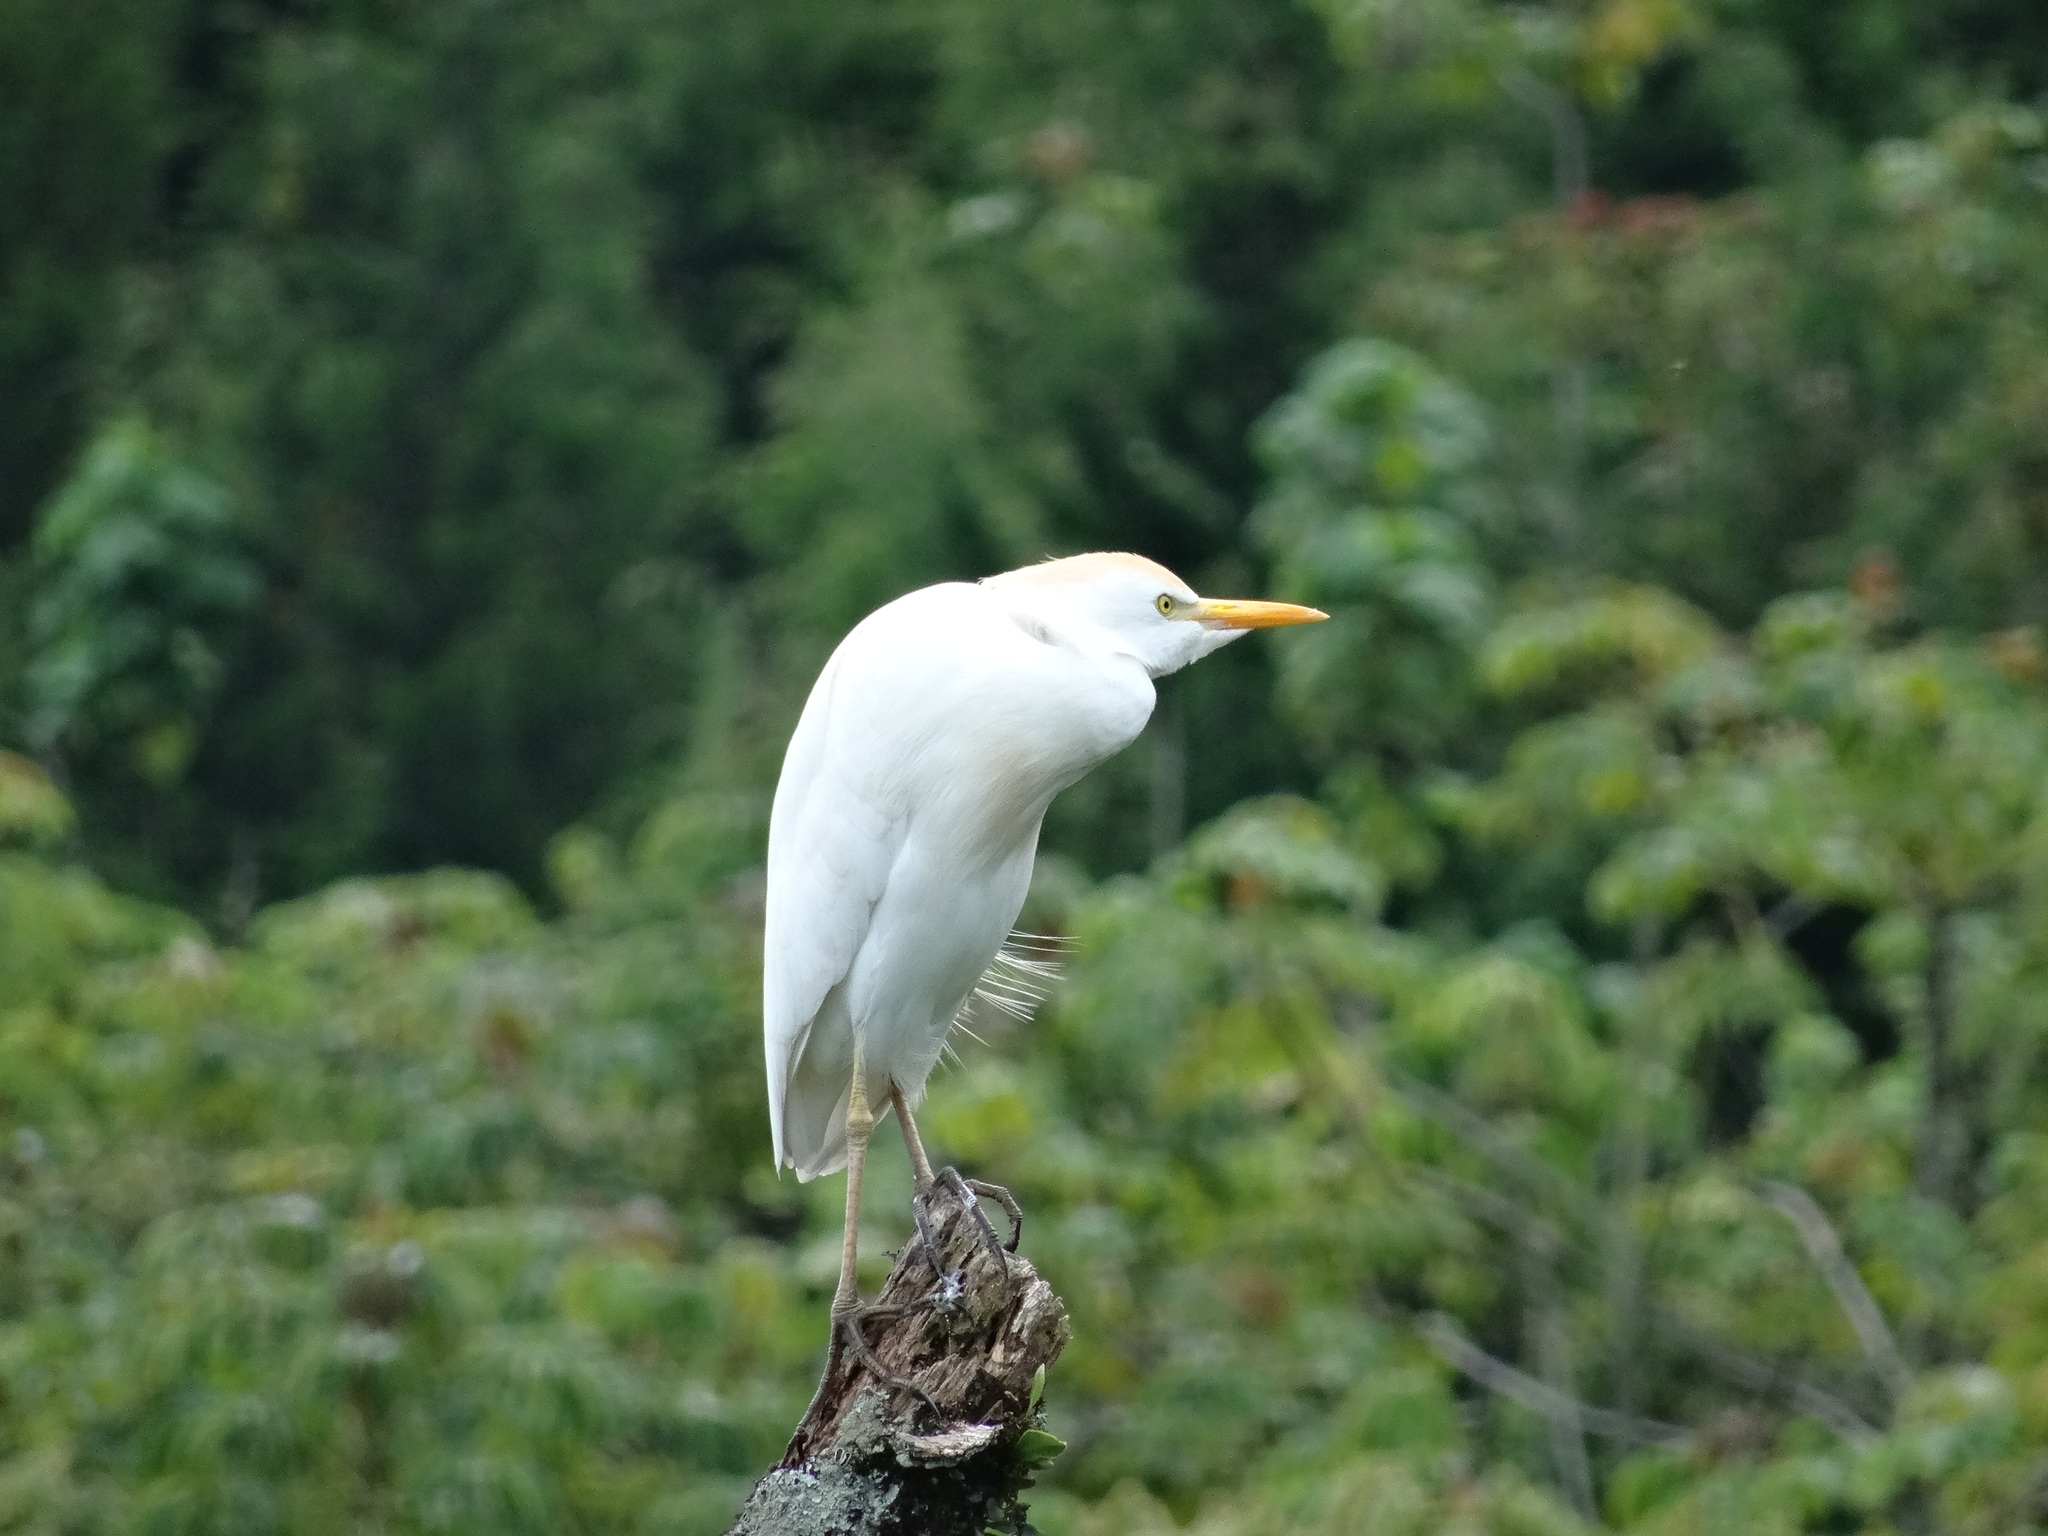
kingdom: Animalia
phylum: Chordata
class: Aves
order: Pelecaniformes
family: Ardeidae
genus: Bubulcus
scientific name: Bubulcus ibis
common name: Cattle egret
